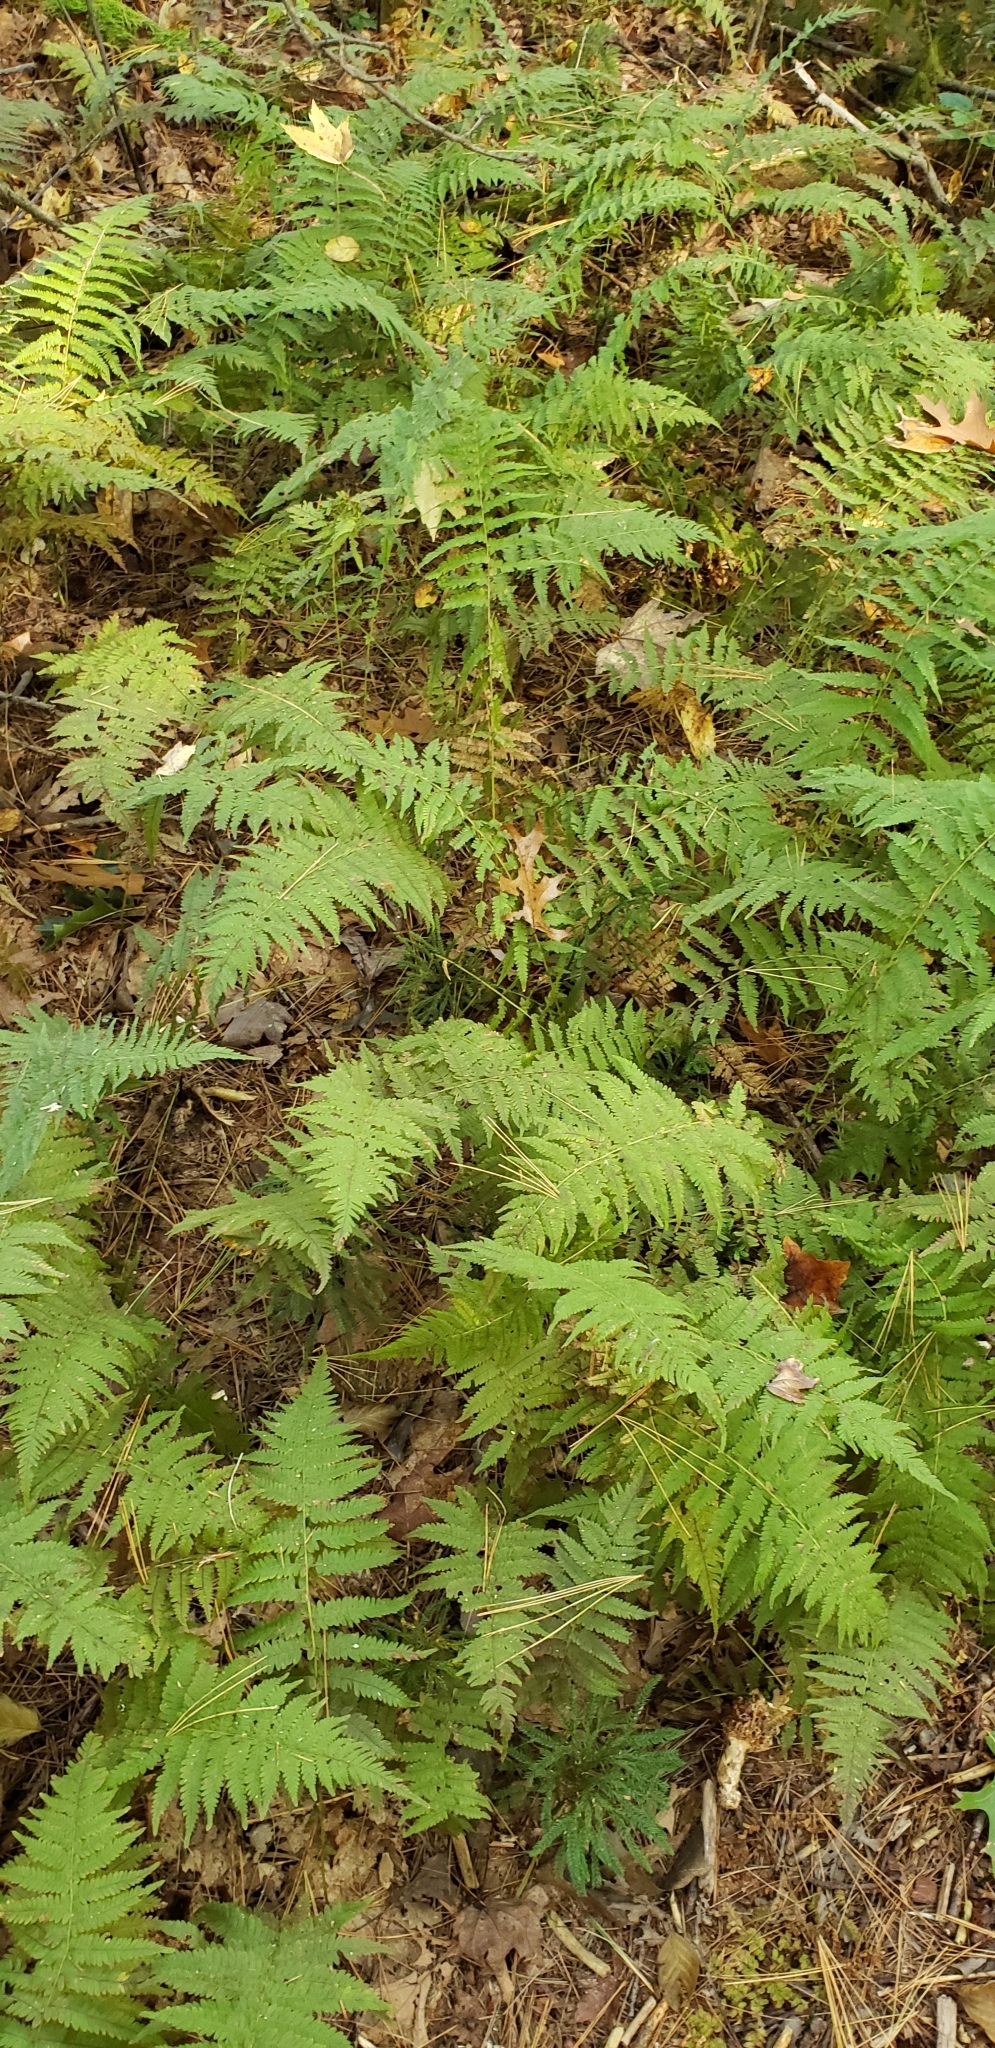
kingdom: Plantae
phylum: Tracheophyta
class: Polypodiopsida
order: Polypodiales
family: Thelypteridaceae
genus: Amauropelta
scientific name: Amauropelta noveboracensis
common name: New york fern
